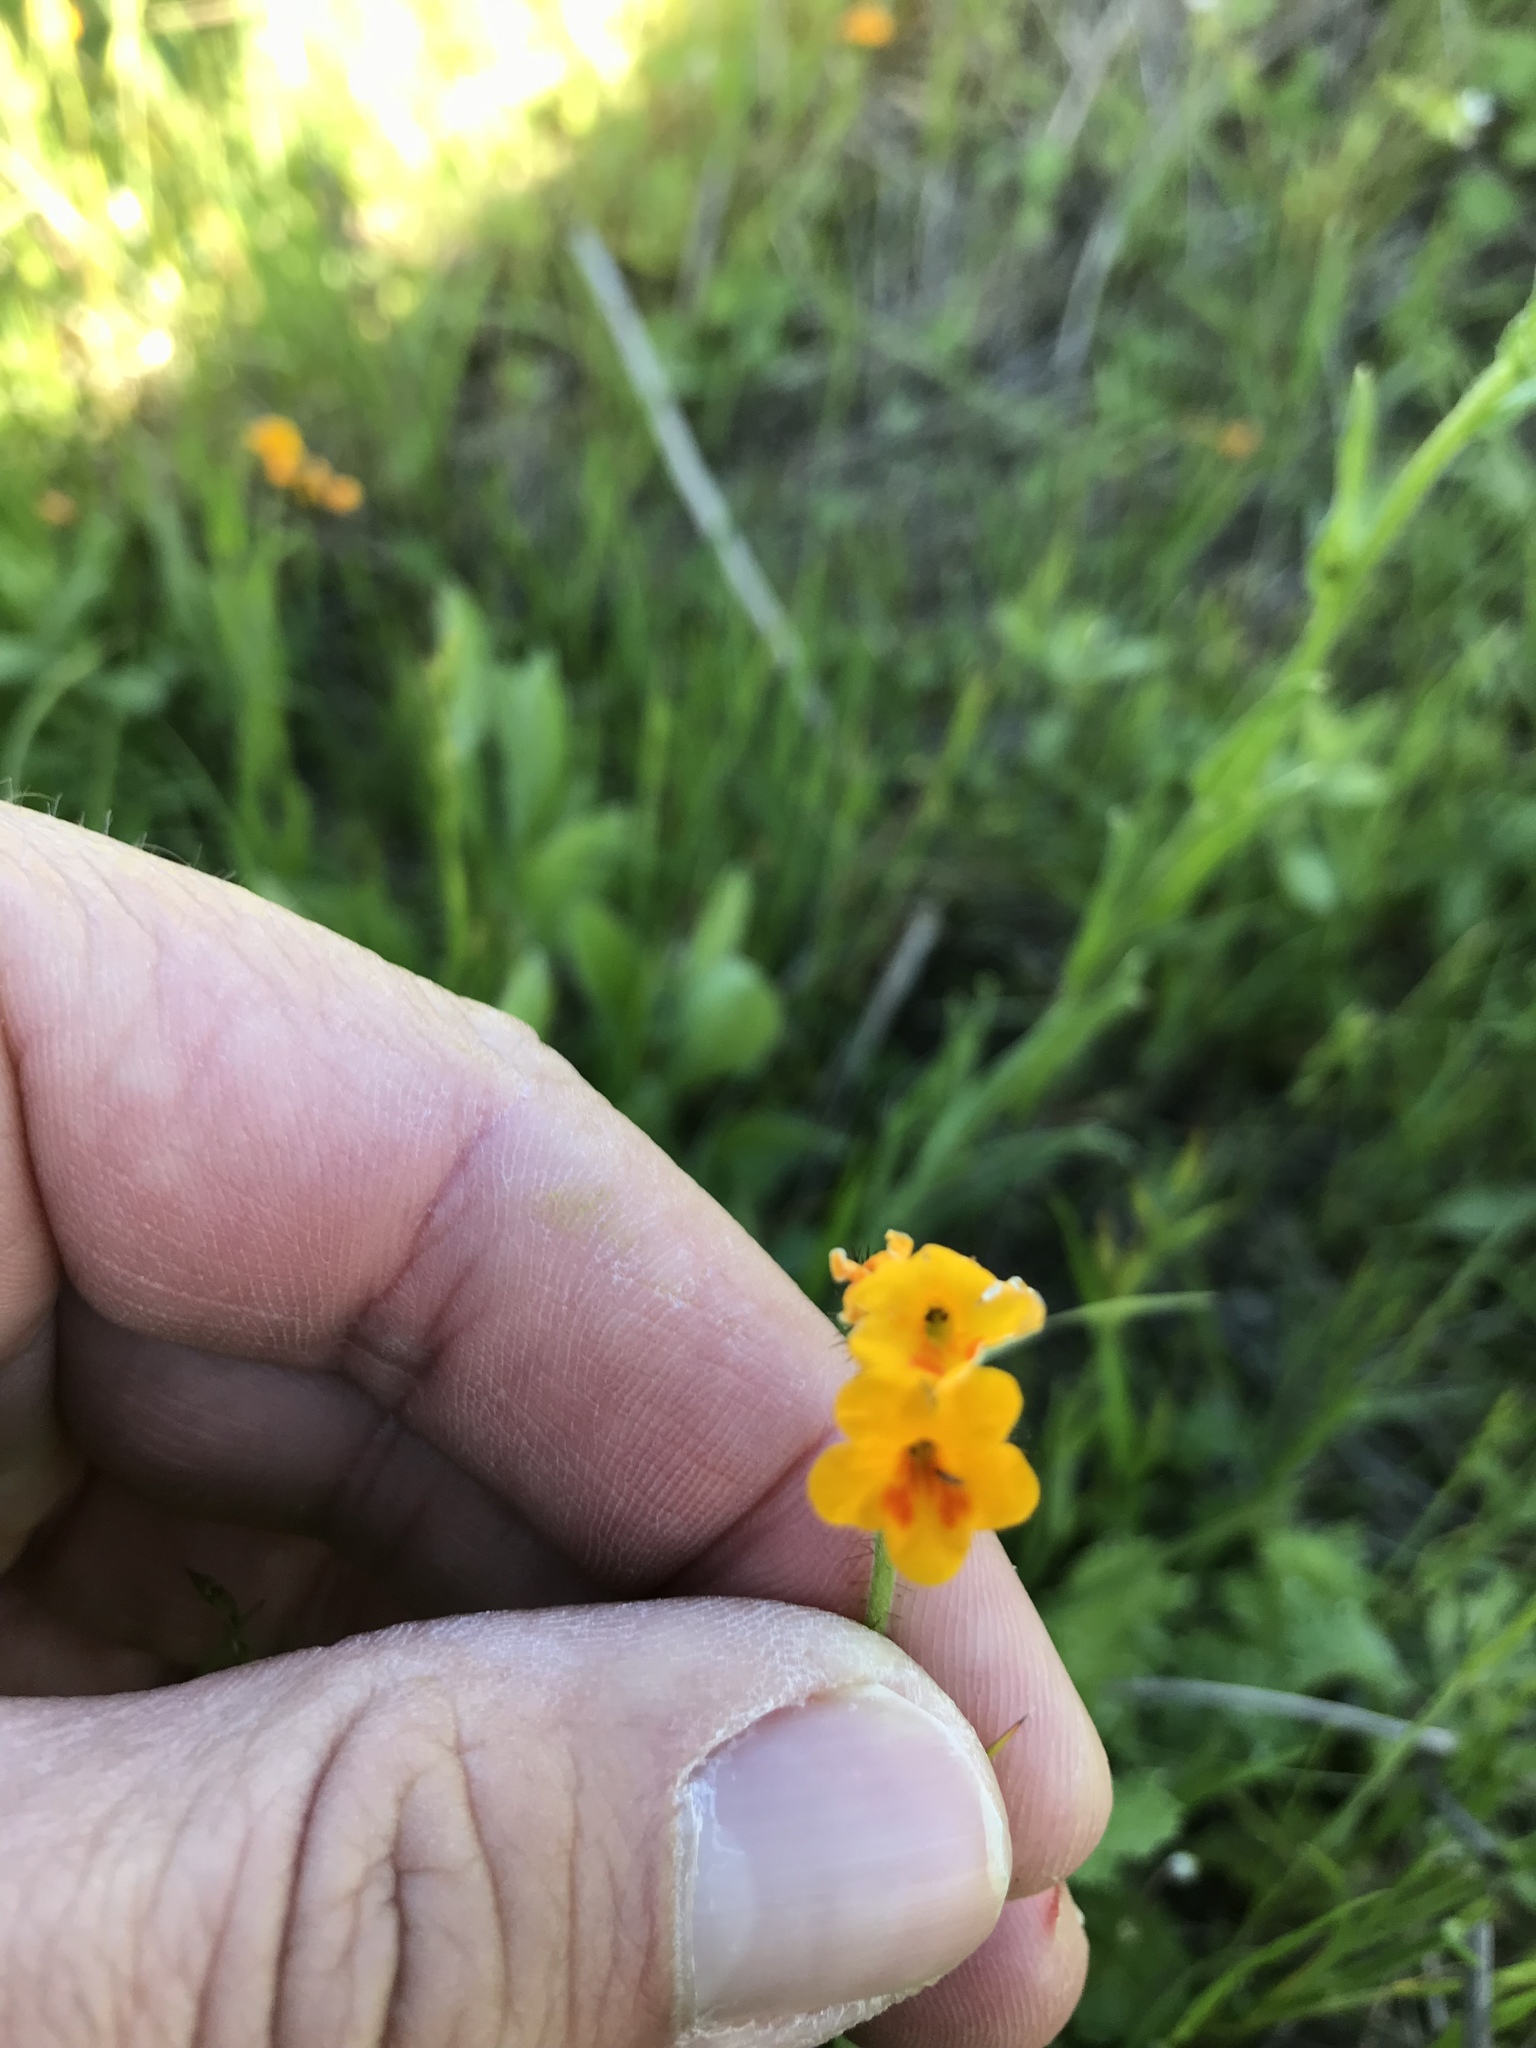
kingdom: Plantae
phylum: Tracheophyta
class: Magnoliopsida
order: Boraginales
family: Boraginaceae
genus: Amsinckia
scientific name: Amsinckia lunaris
